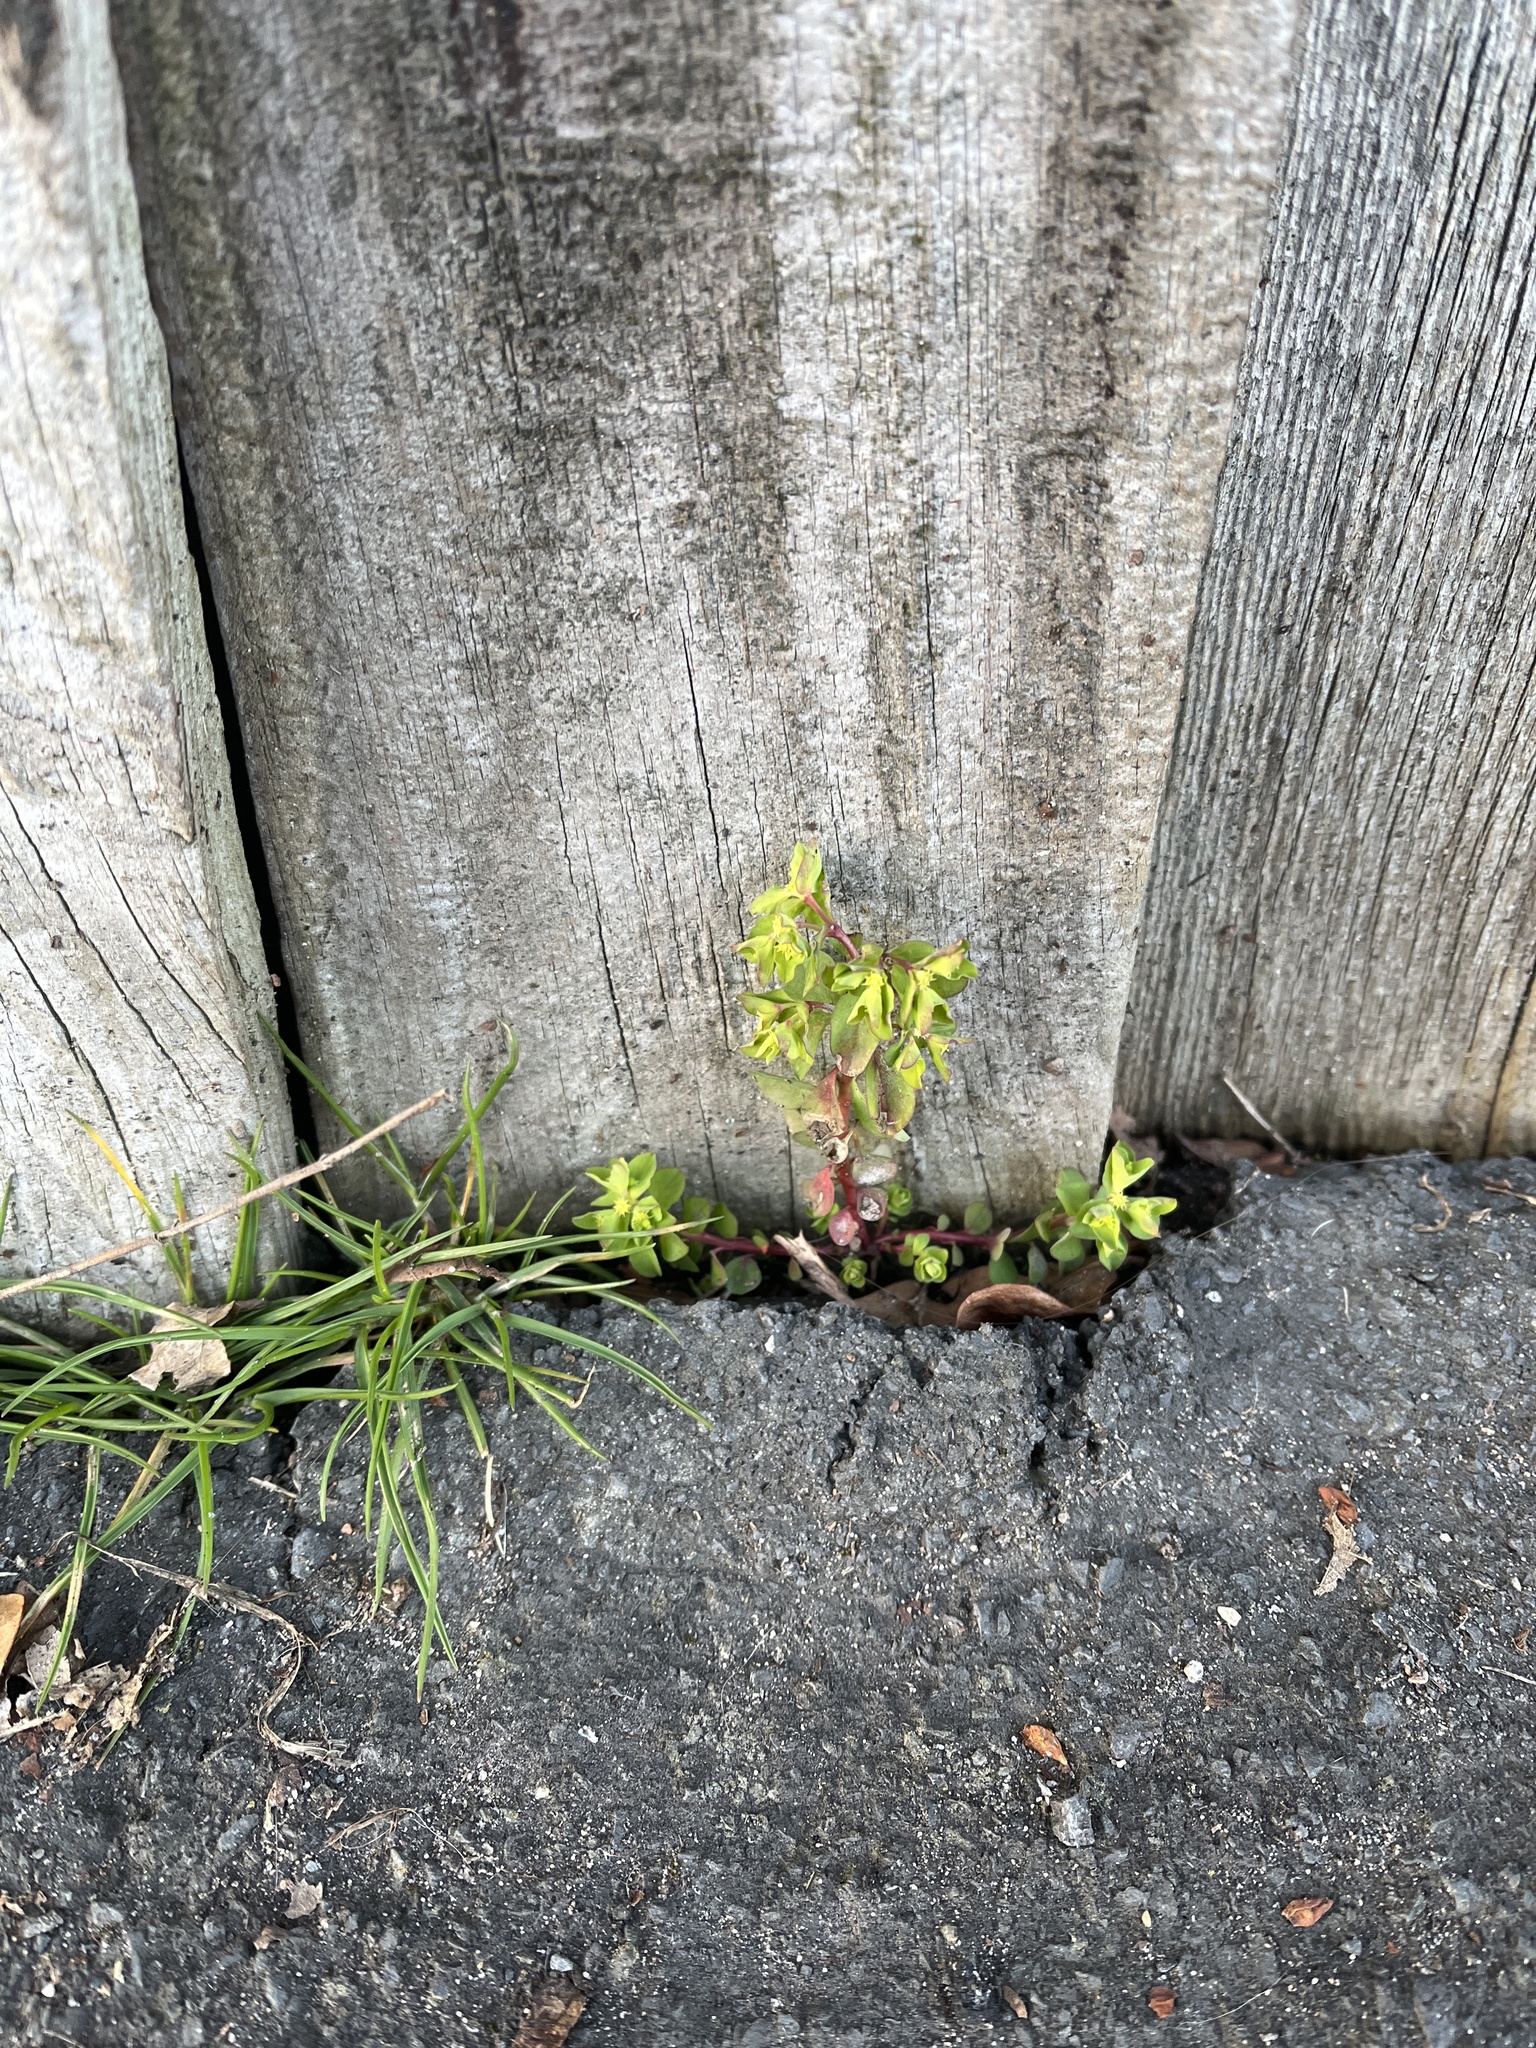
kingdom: Plantae
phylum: Tracheophyta
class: Magnoliopsida
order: Malpighiales
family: Euphorbiaceae
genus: Euphorbia
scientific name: Euphorbia peplus
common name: Petty spurge
